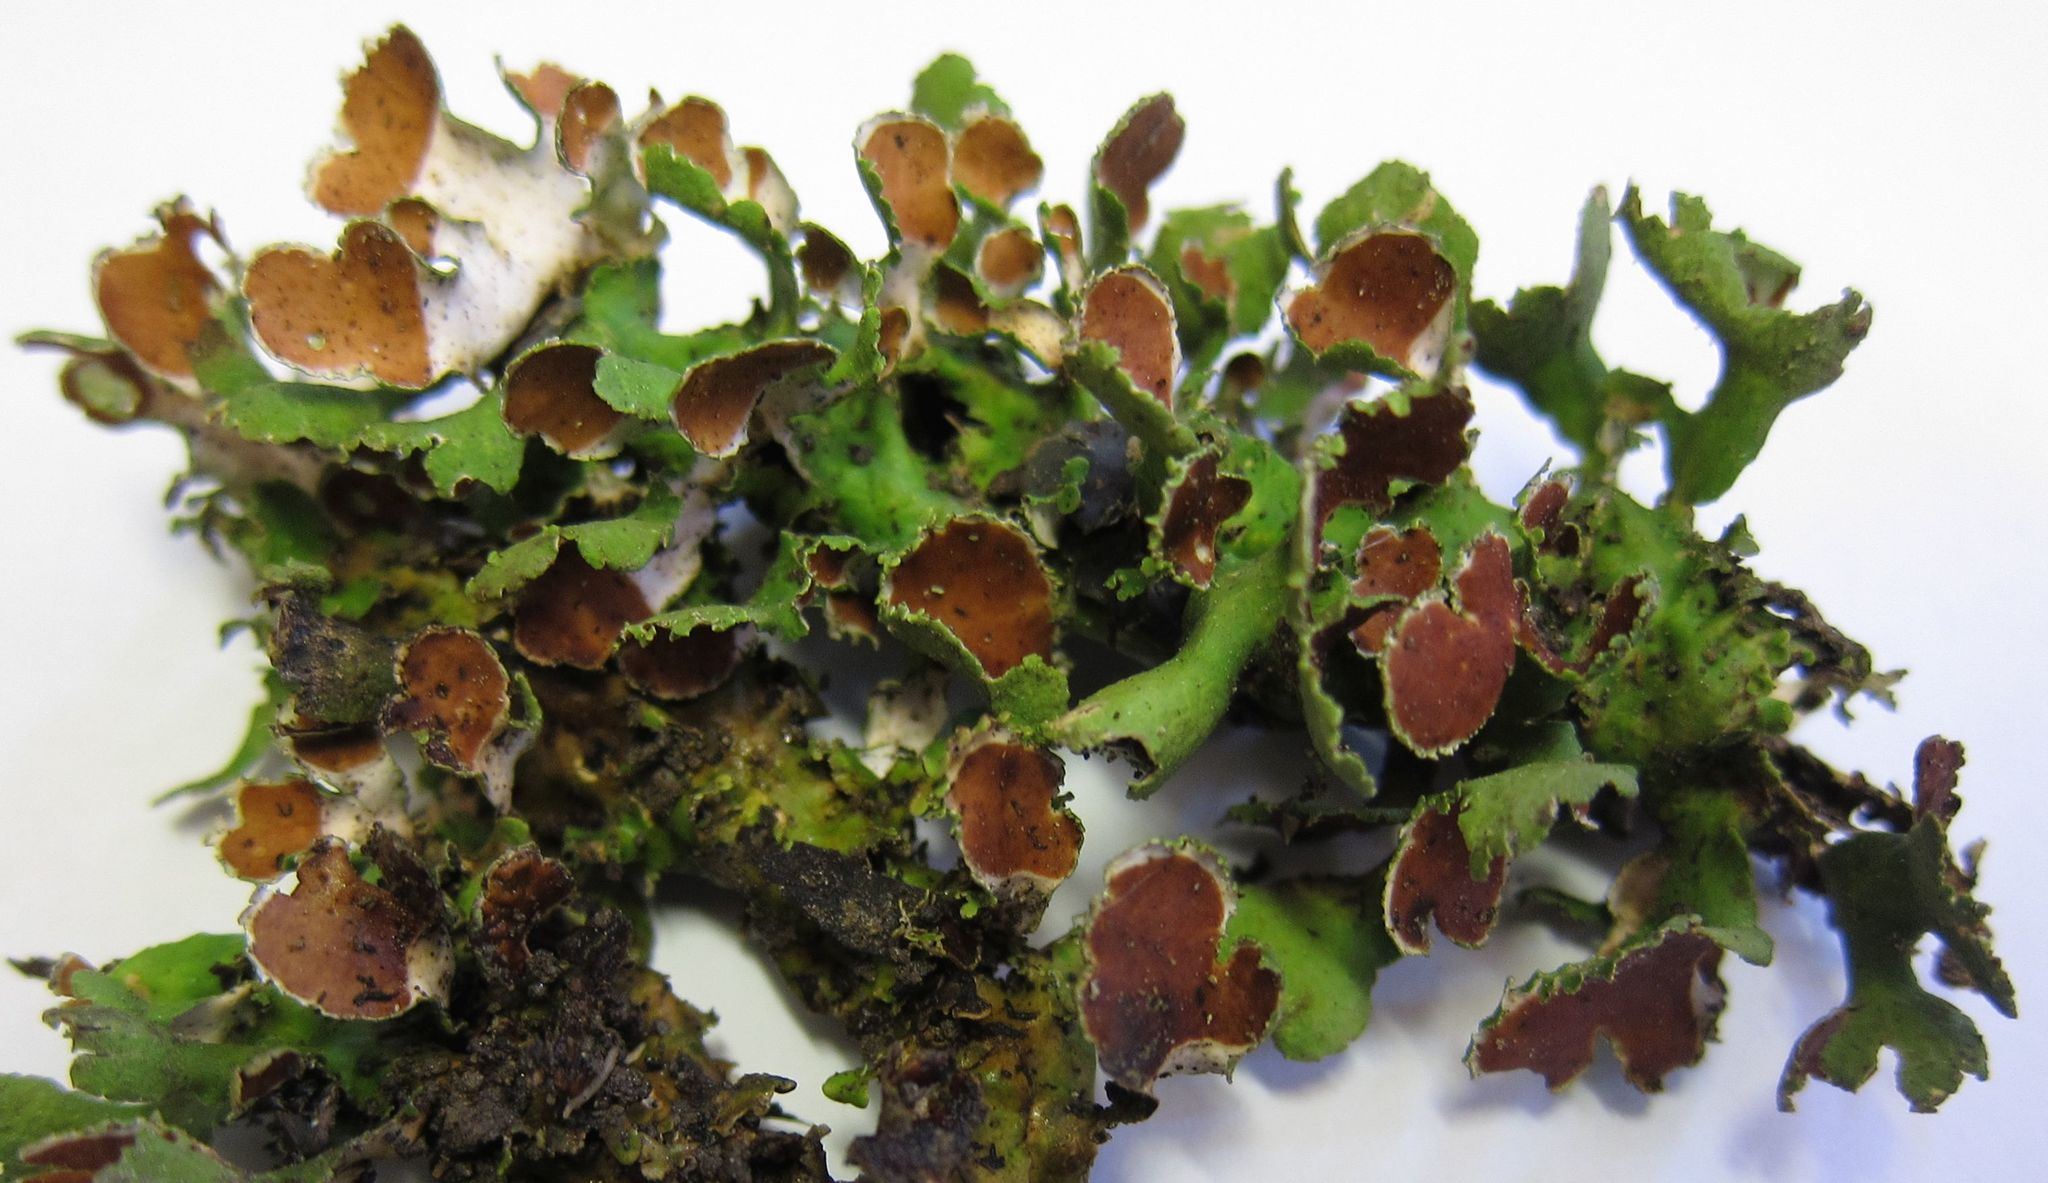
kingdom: Fungi
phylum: Ascomycota
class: Lecanoromycetes
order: Peltigerales
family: Nephromataceae
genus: Nephroma
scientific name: Nephroma australe
